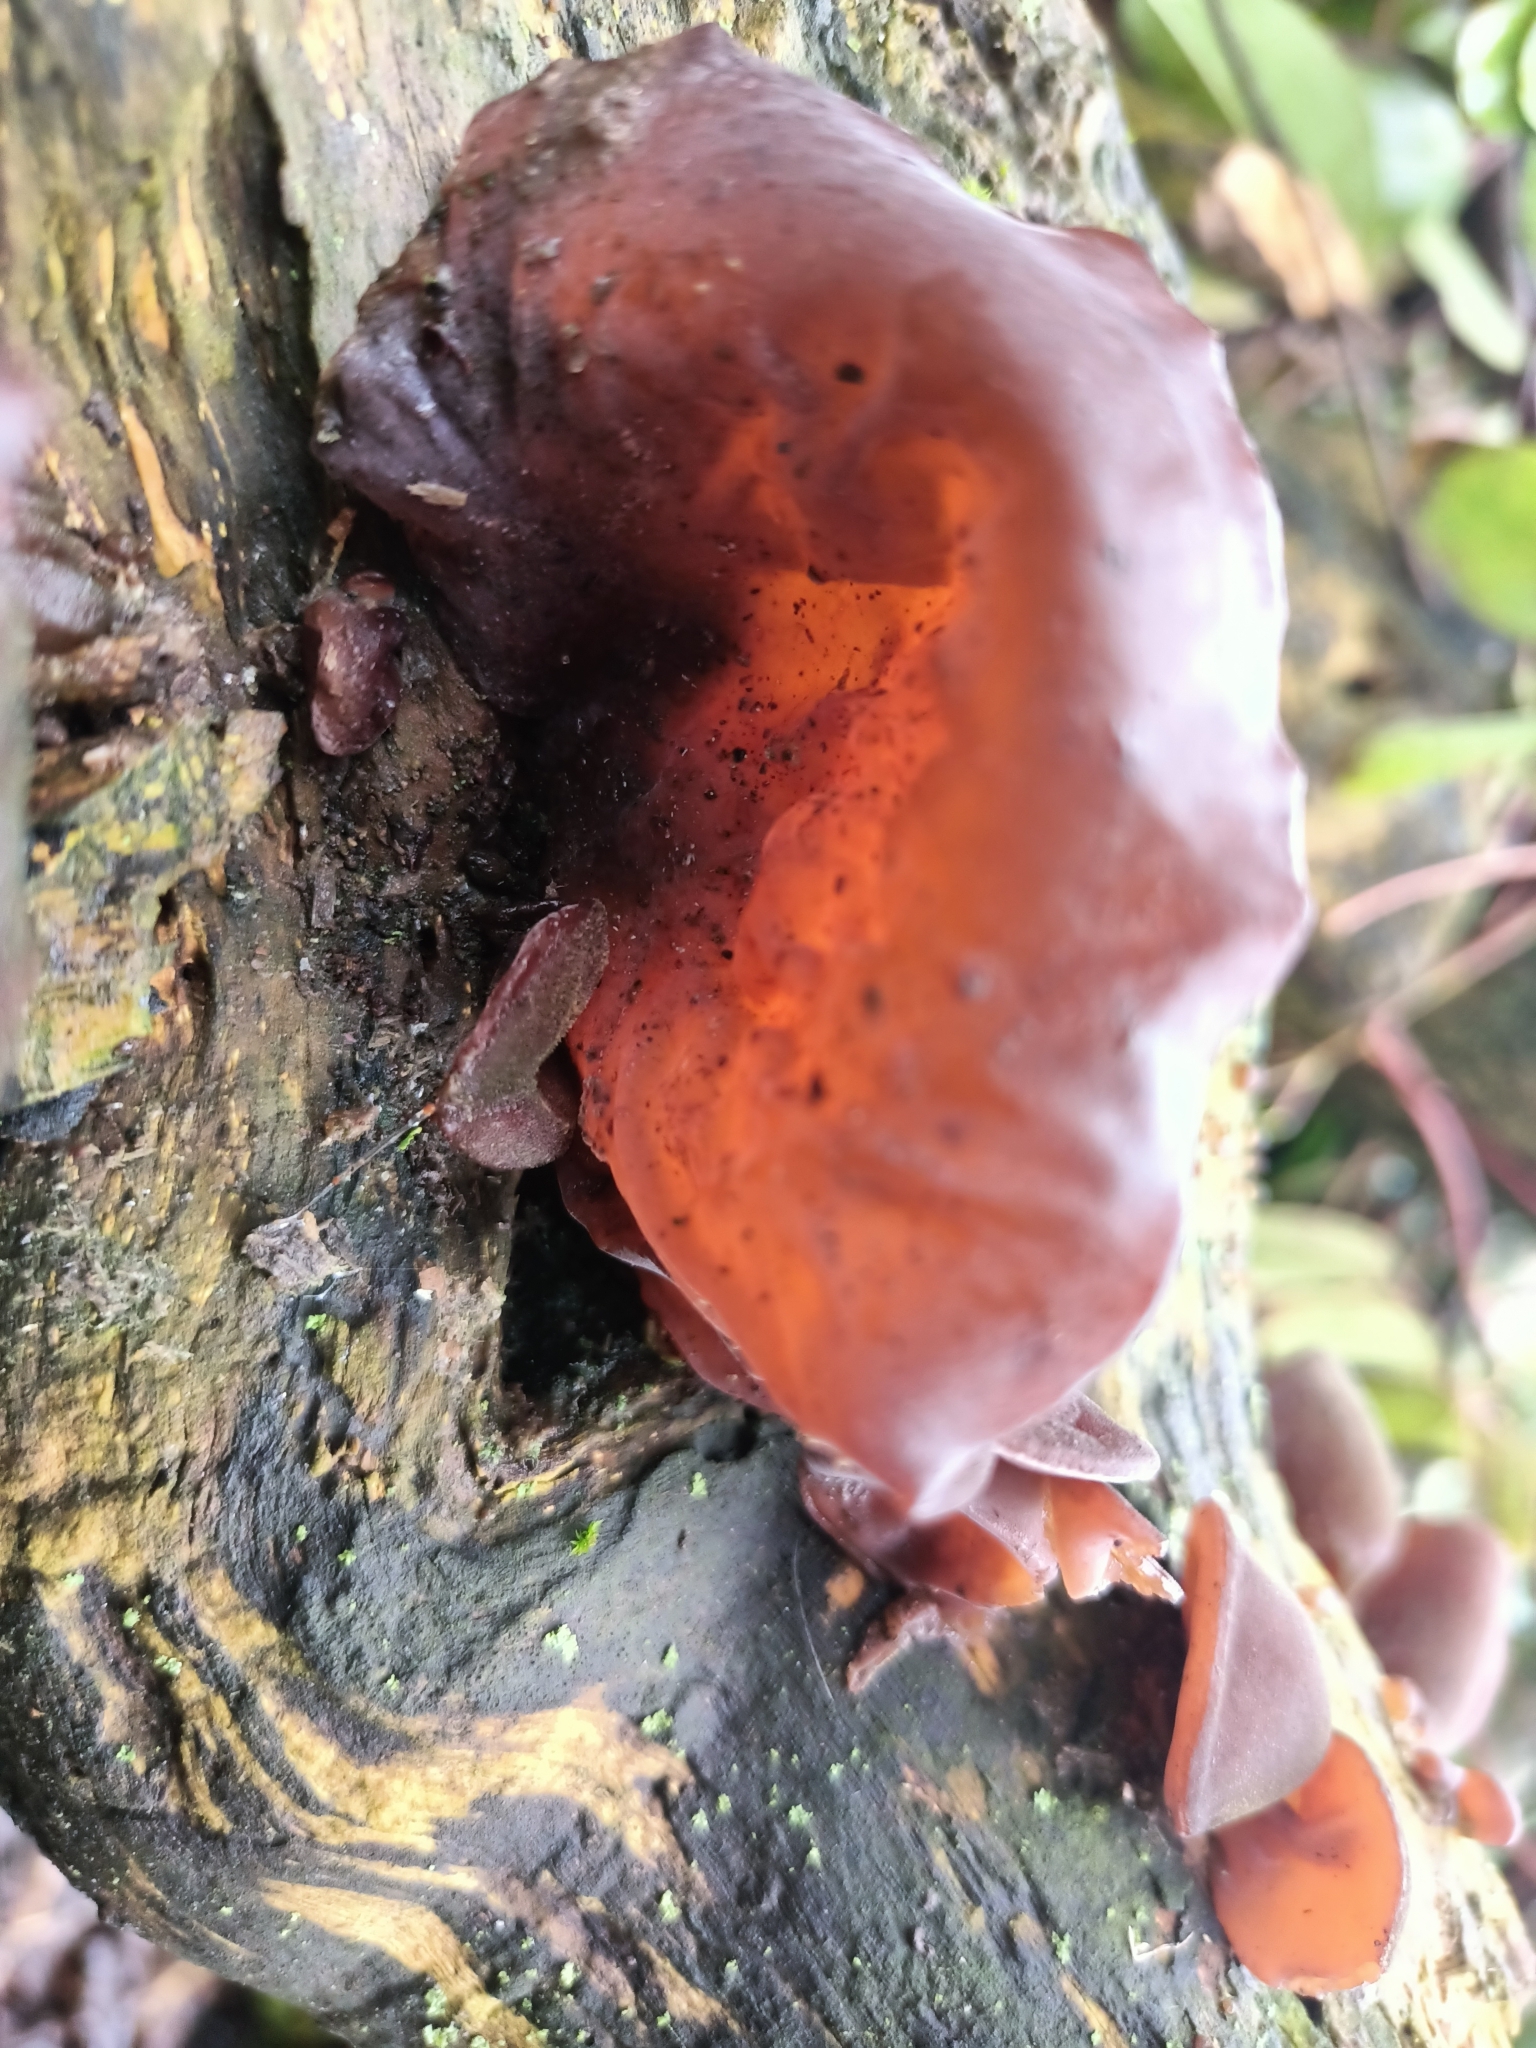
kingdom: Fungi
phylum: Basidiomycota
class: Agaricomycetes
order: Auriculariales
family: Auriculariaceae
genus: Auricularia
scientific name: Auricularia auricula-judae
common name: Jelly ear
